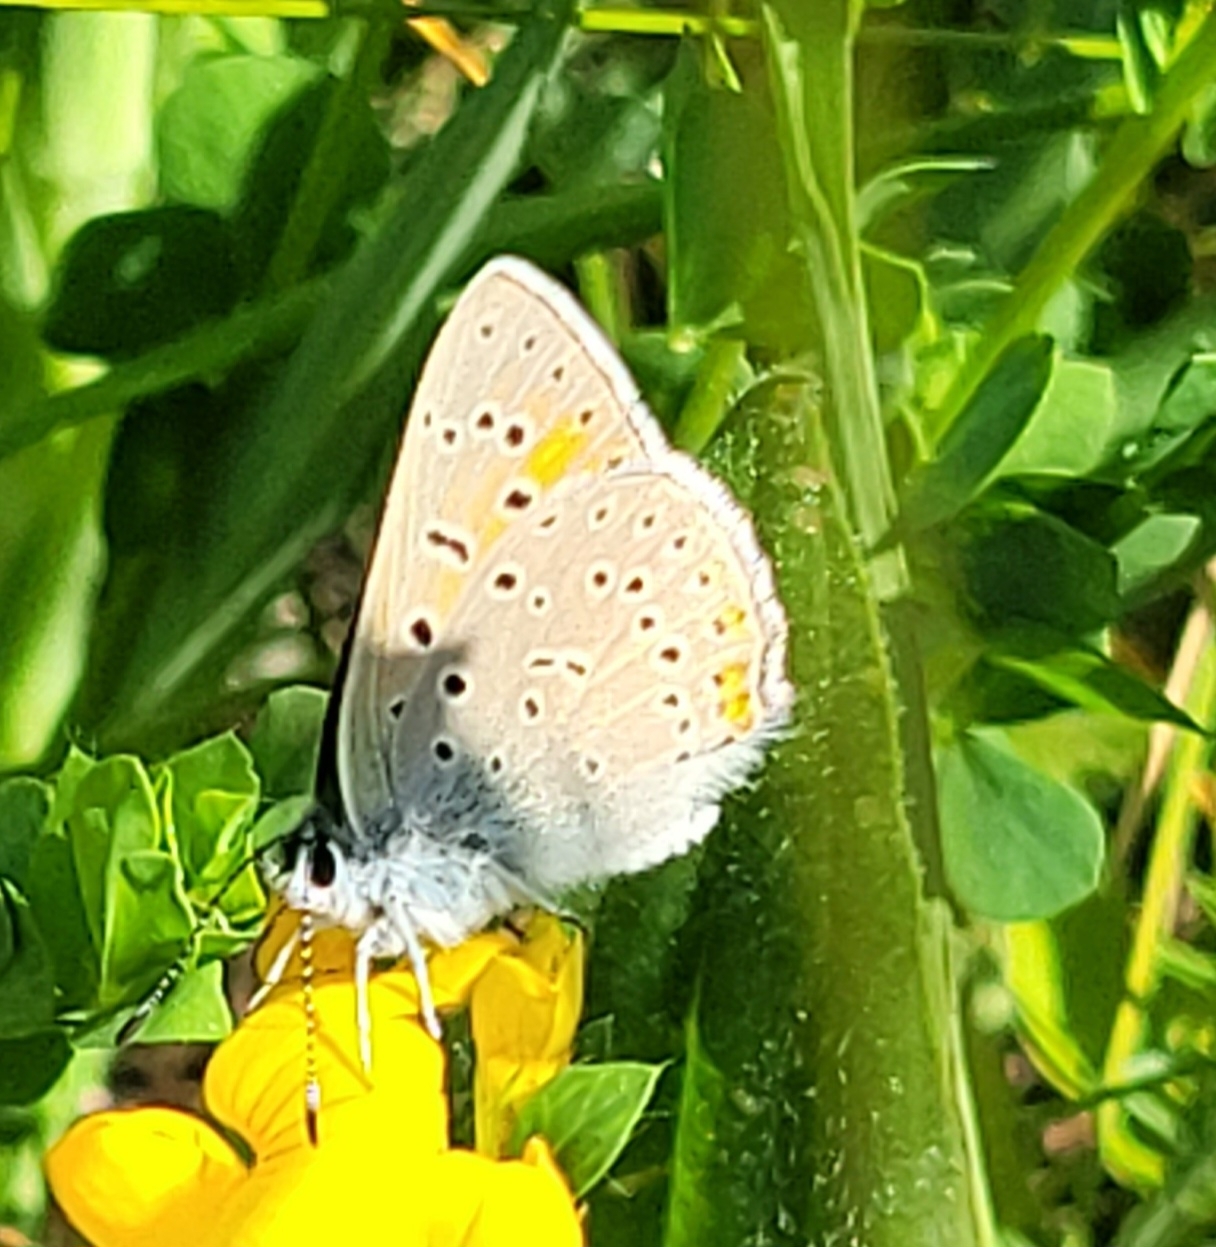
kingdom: Animalia
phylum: Arthropoda
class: Insecta
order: Lepidoptera
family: Lycaenidae
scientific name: Lycaenidae
